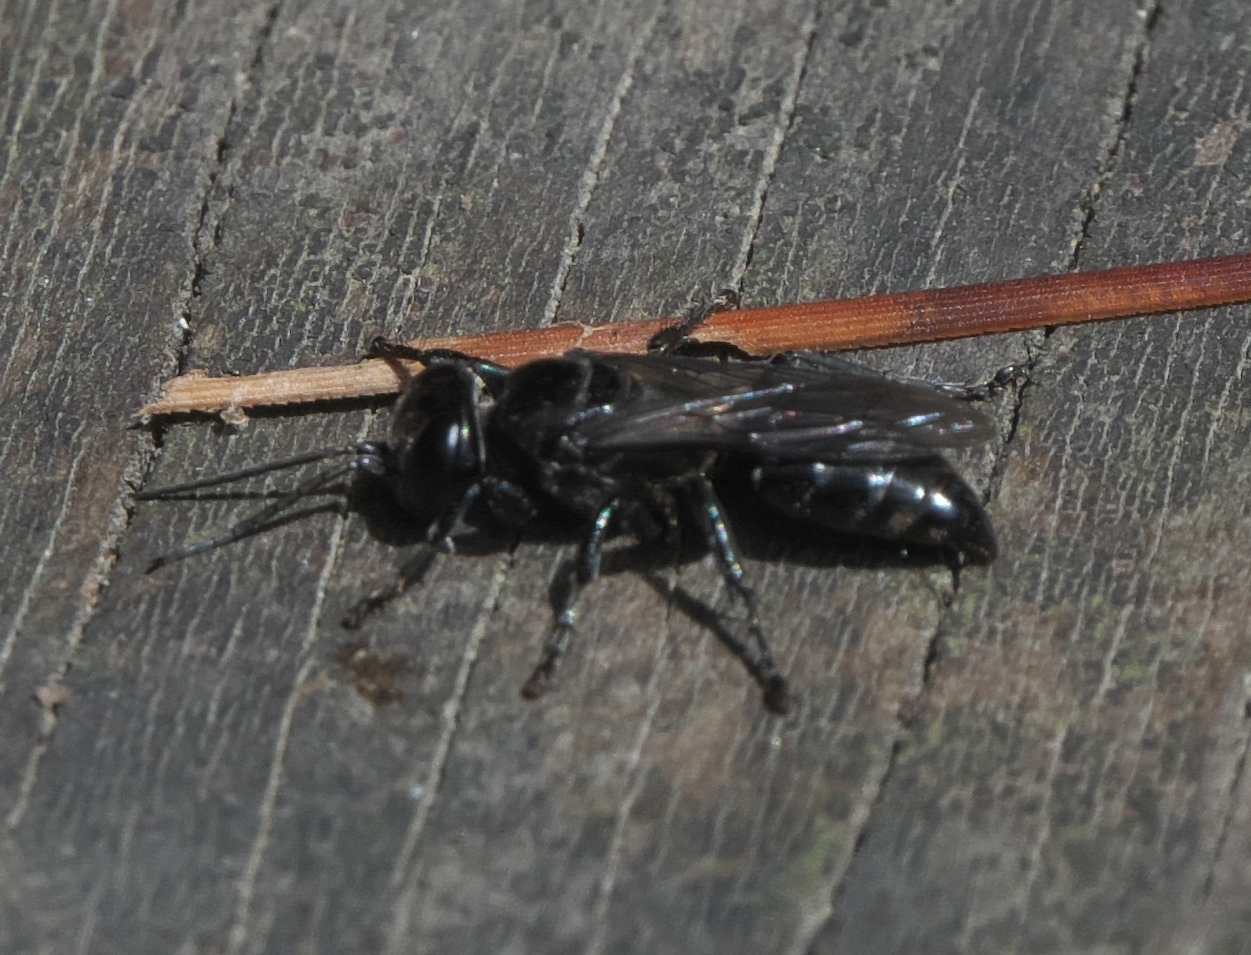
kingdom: Animalia
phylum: Arthropoda
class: Insecta
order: Hymenoptera
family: Crabronidae
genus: Tachysphex
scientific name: Tachysphex nigerrimus
